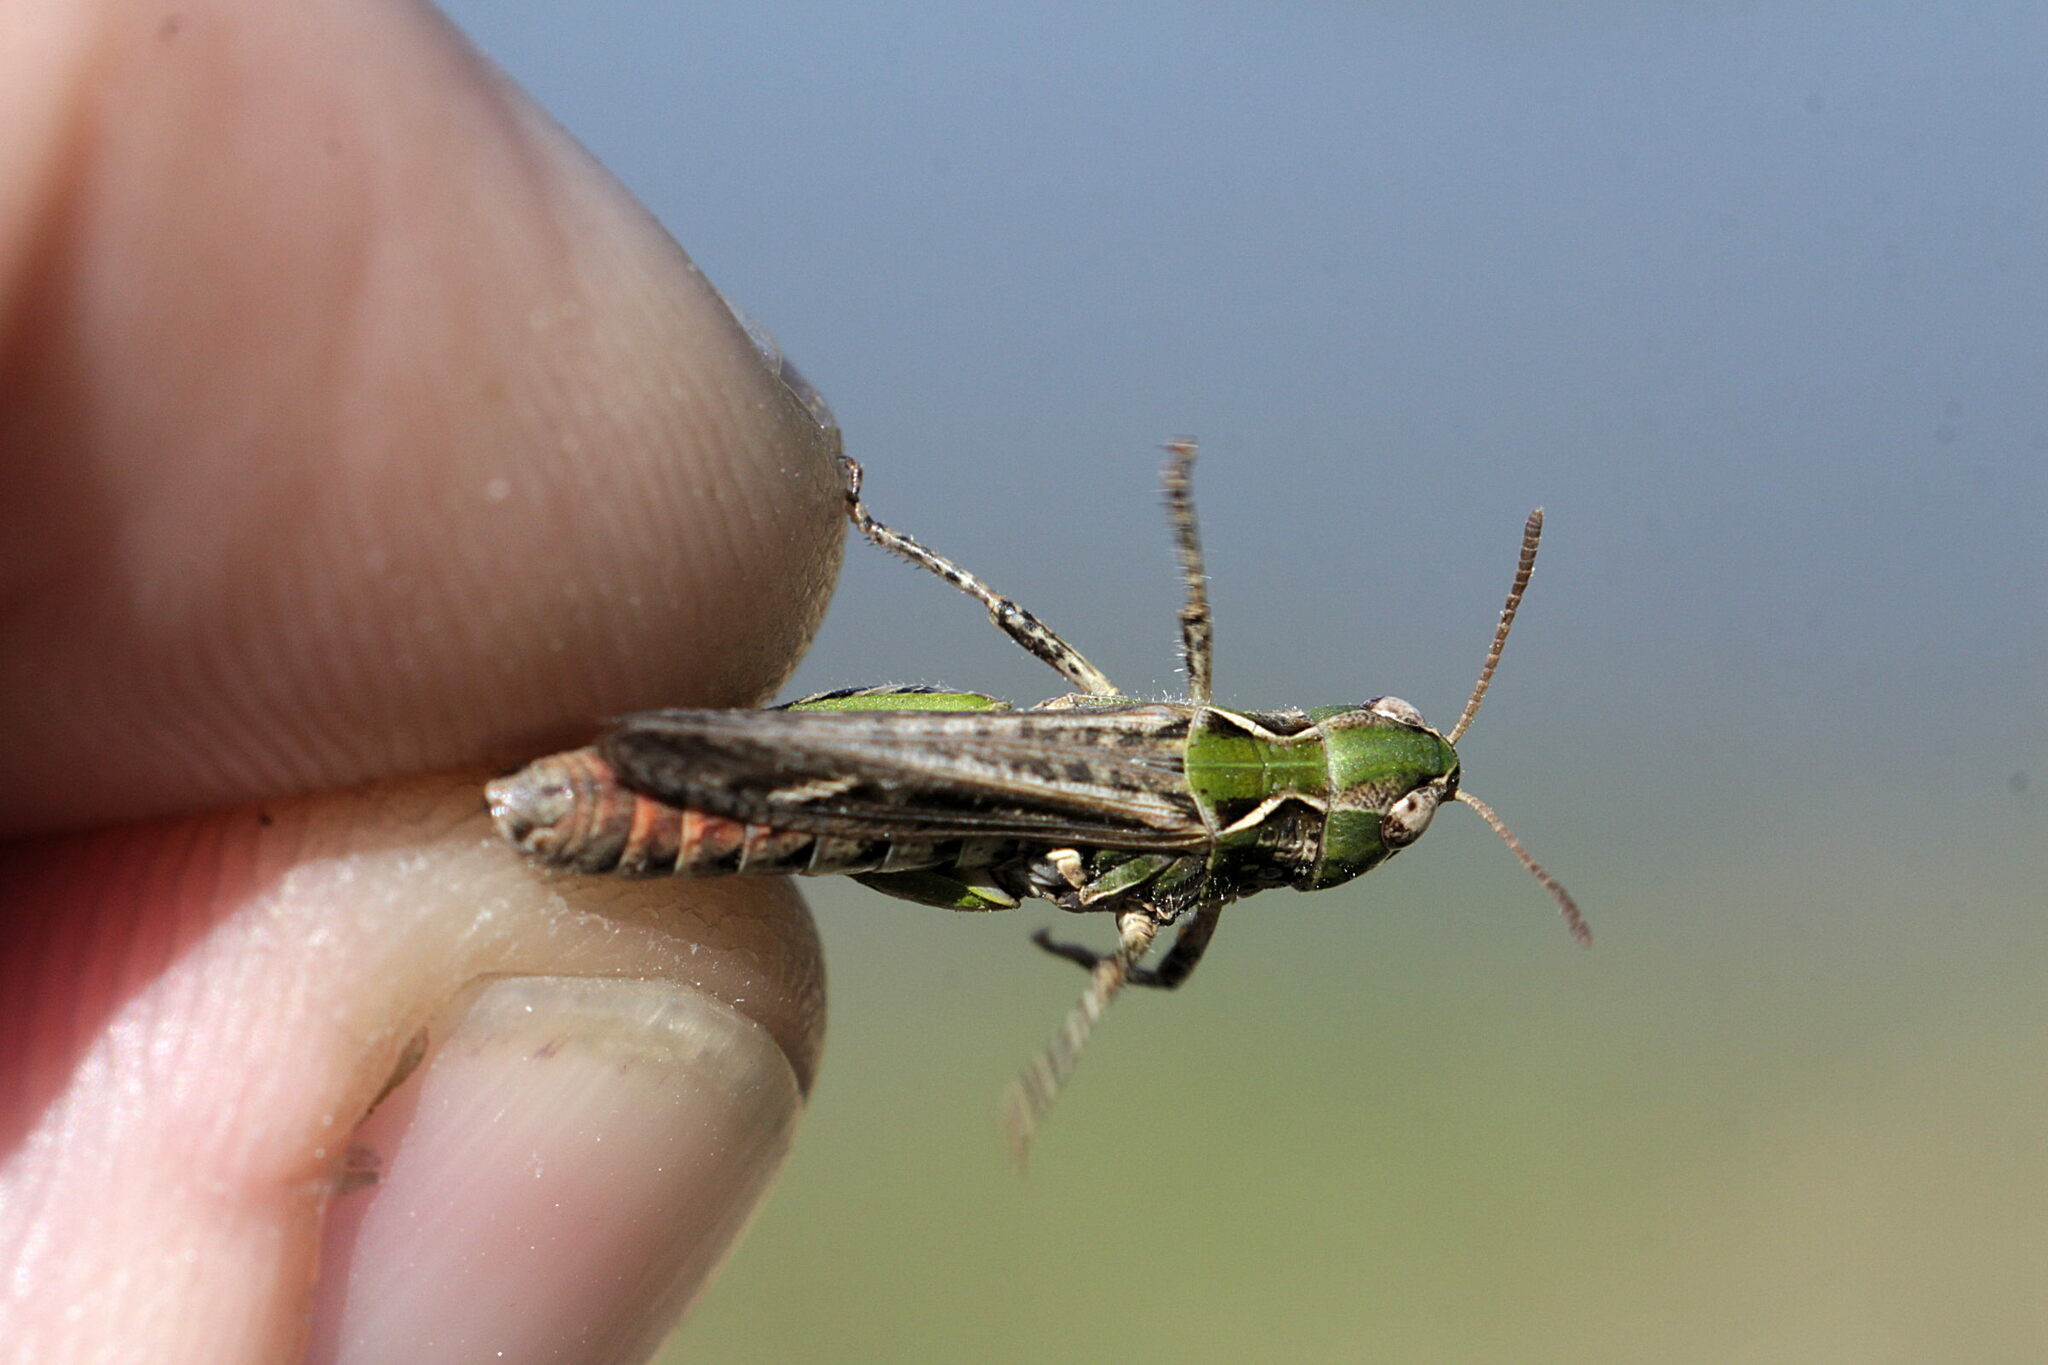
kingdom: Animalia
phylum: Arthropoda
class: Insecta
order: Orthoptera
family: Acrididae
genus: Myrmeleotettix
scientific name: Myrmeleotettix maculatus
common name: Mottled grasshopper
